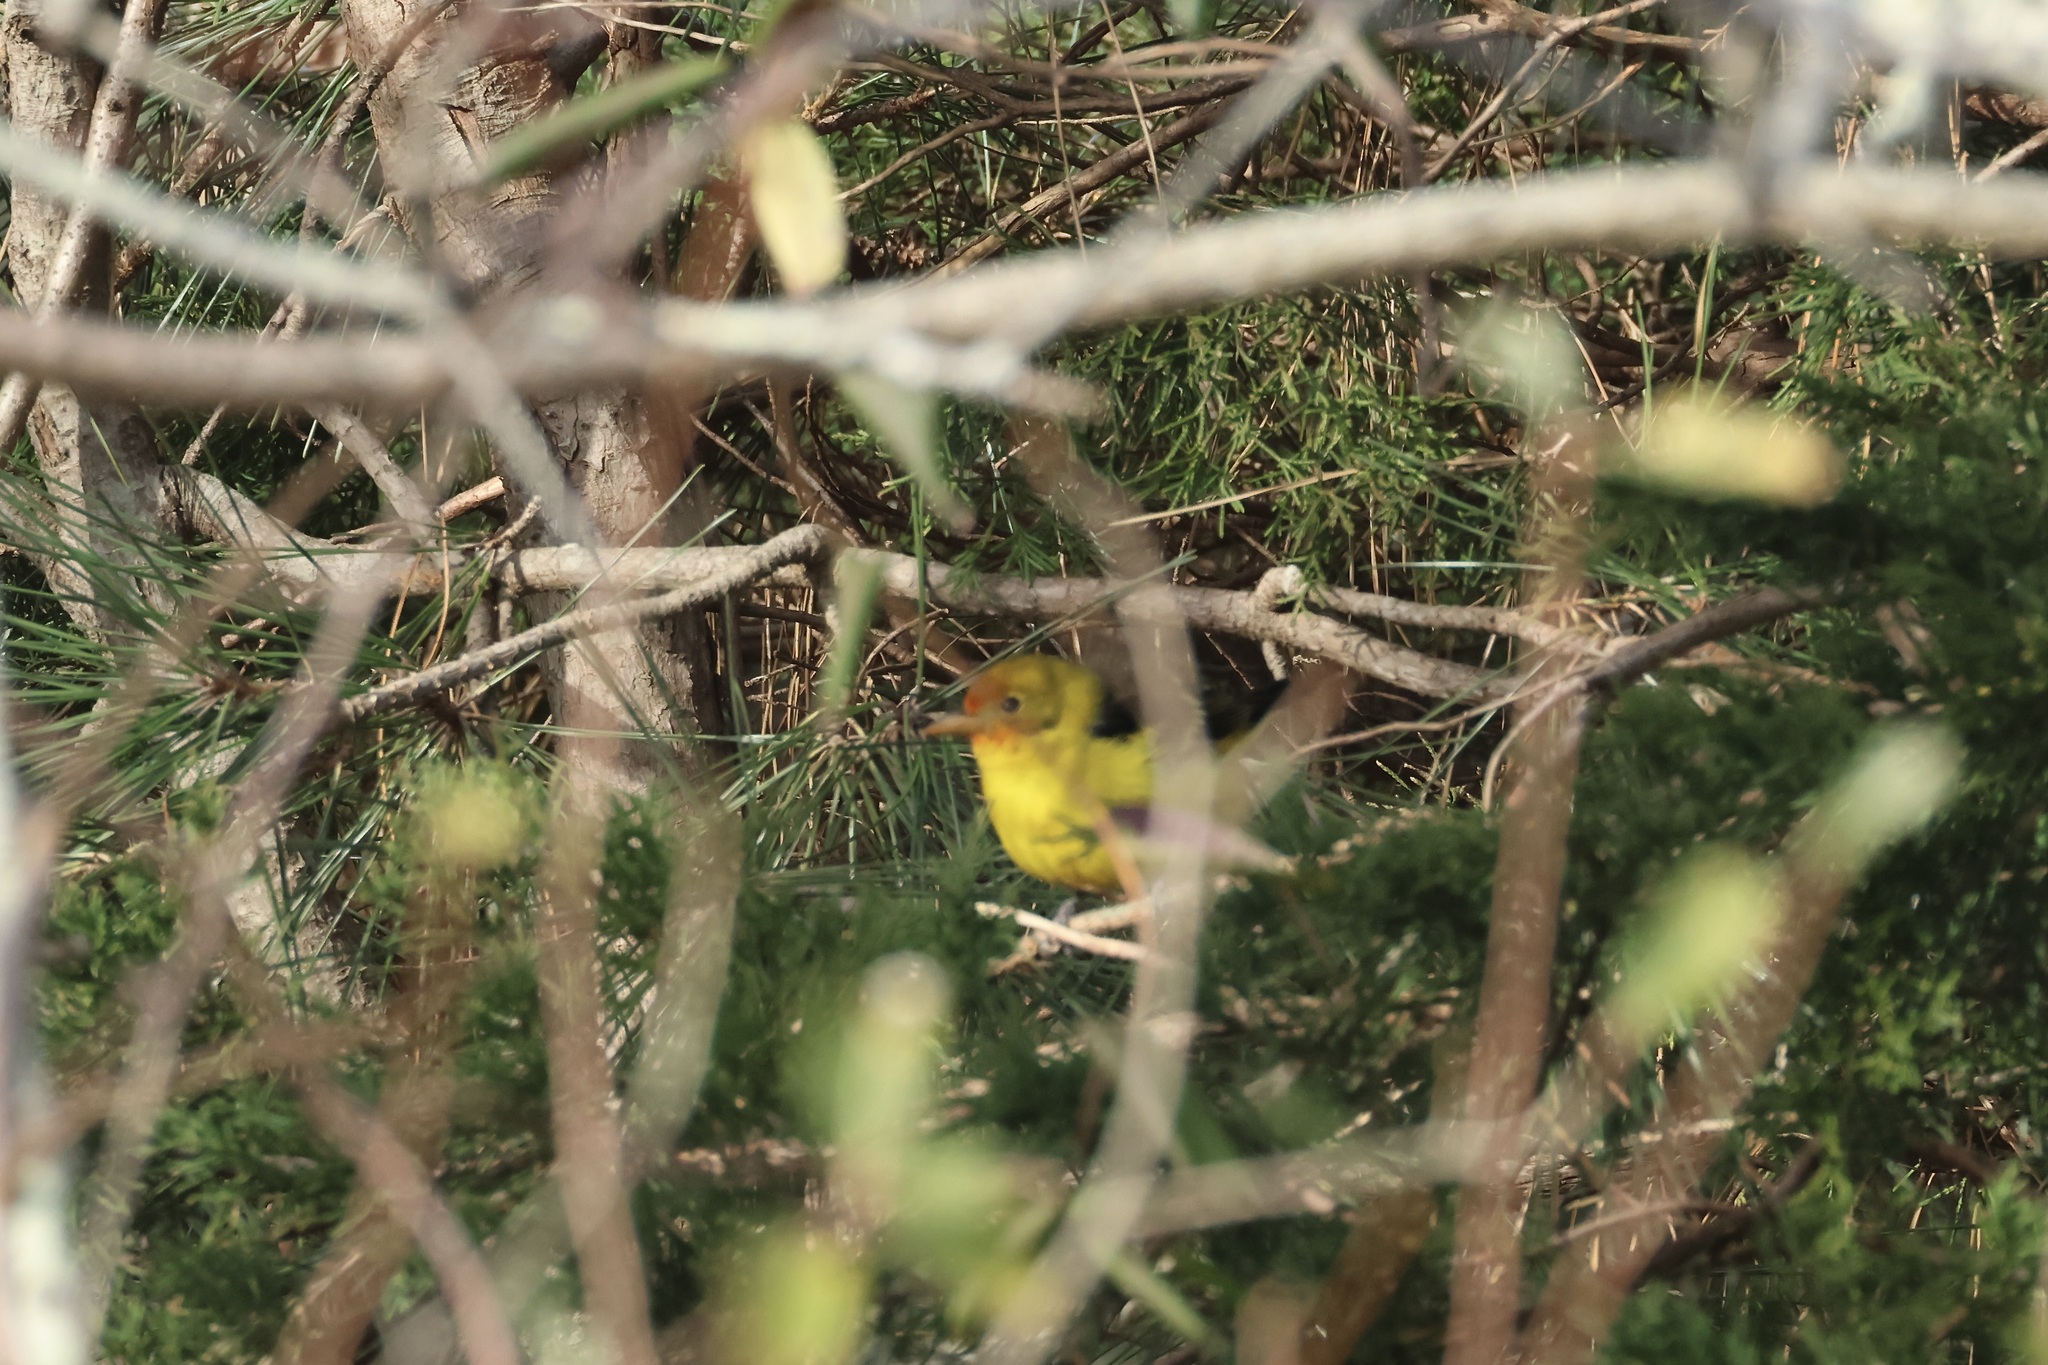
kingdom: Animalia
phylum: Chordata
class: Aves
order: Passeriformes
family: Cardinalidae
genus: Piranga
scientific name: Piranga ludoviciana
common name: Western tanager
